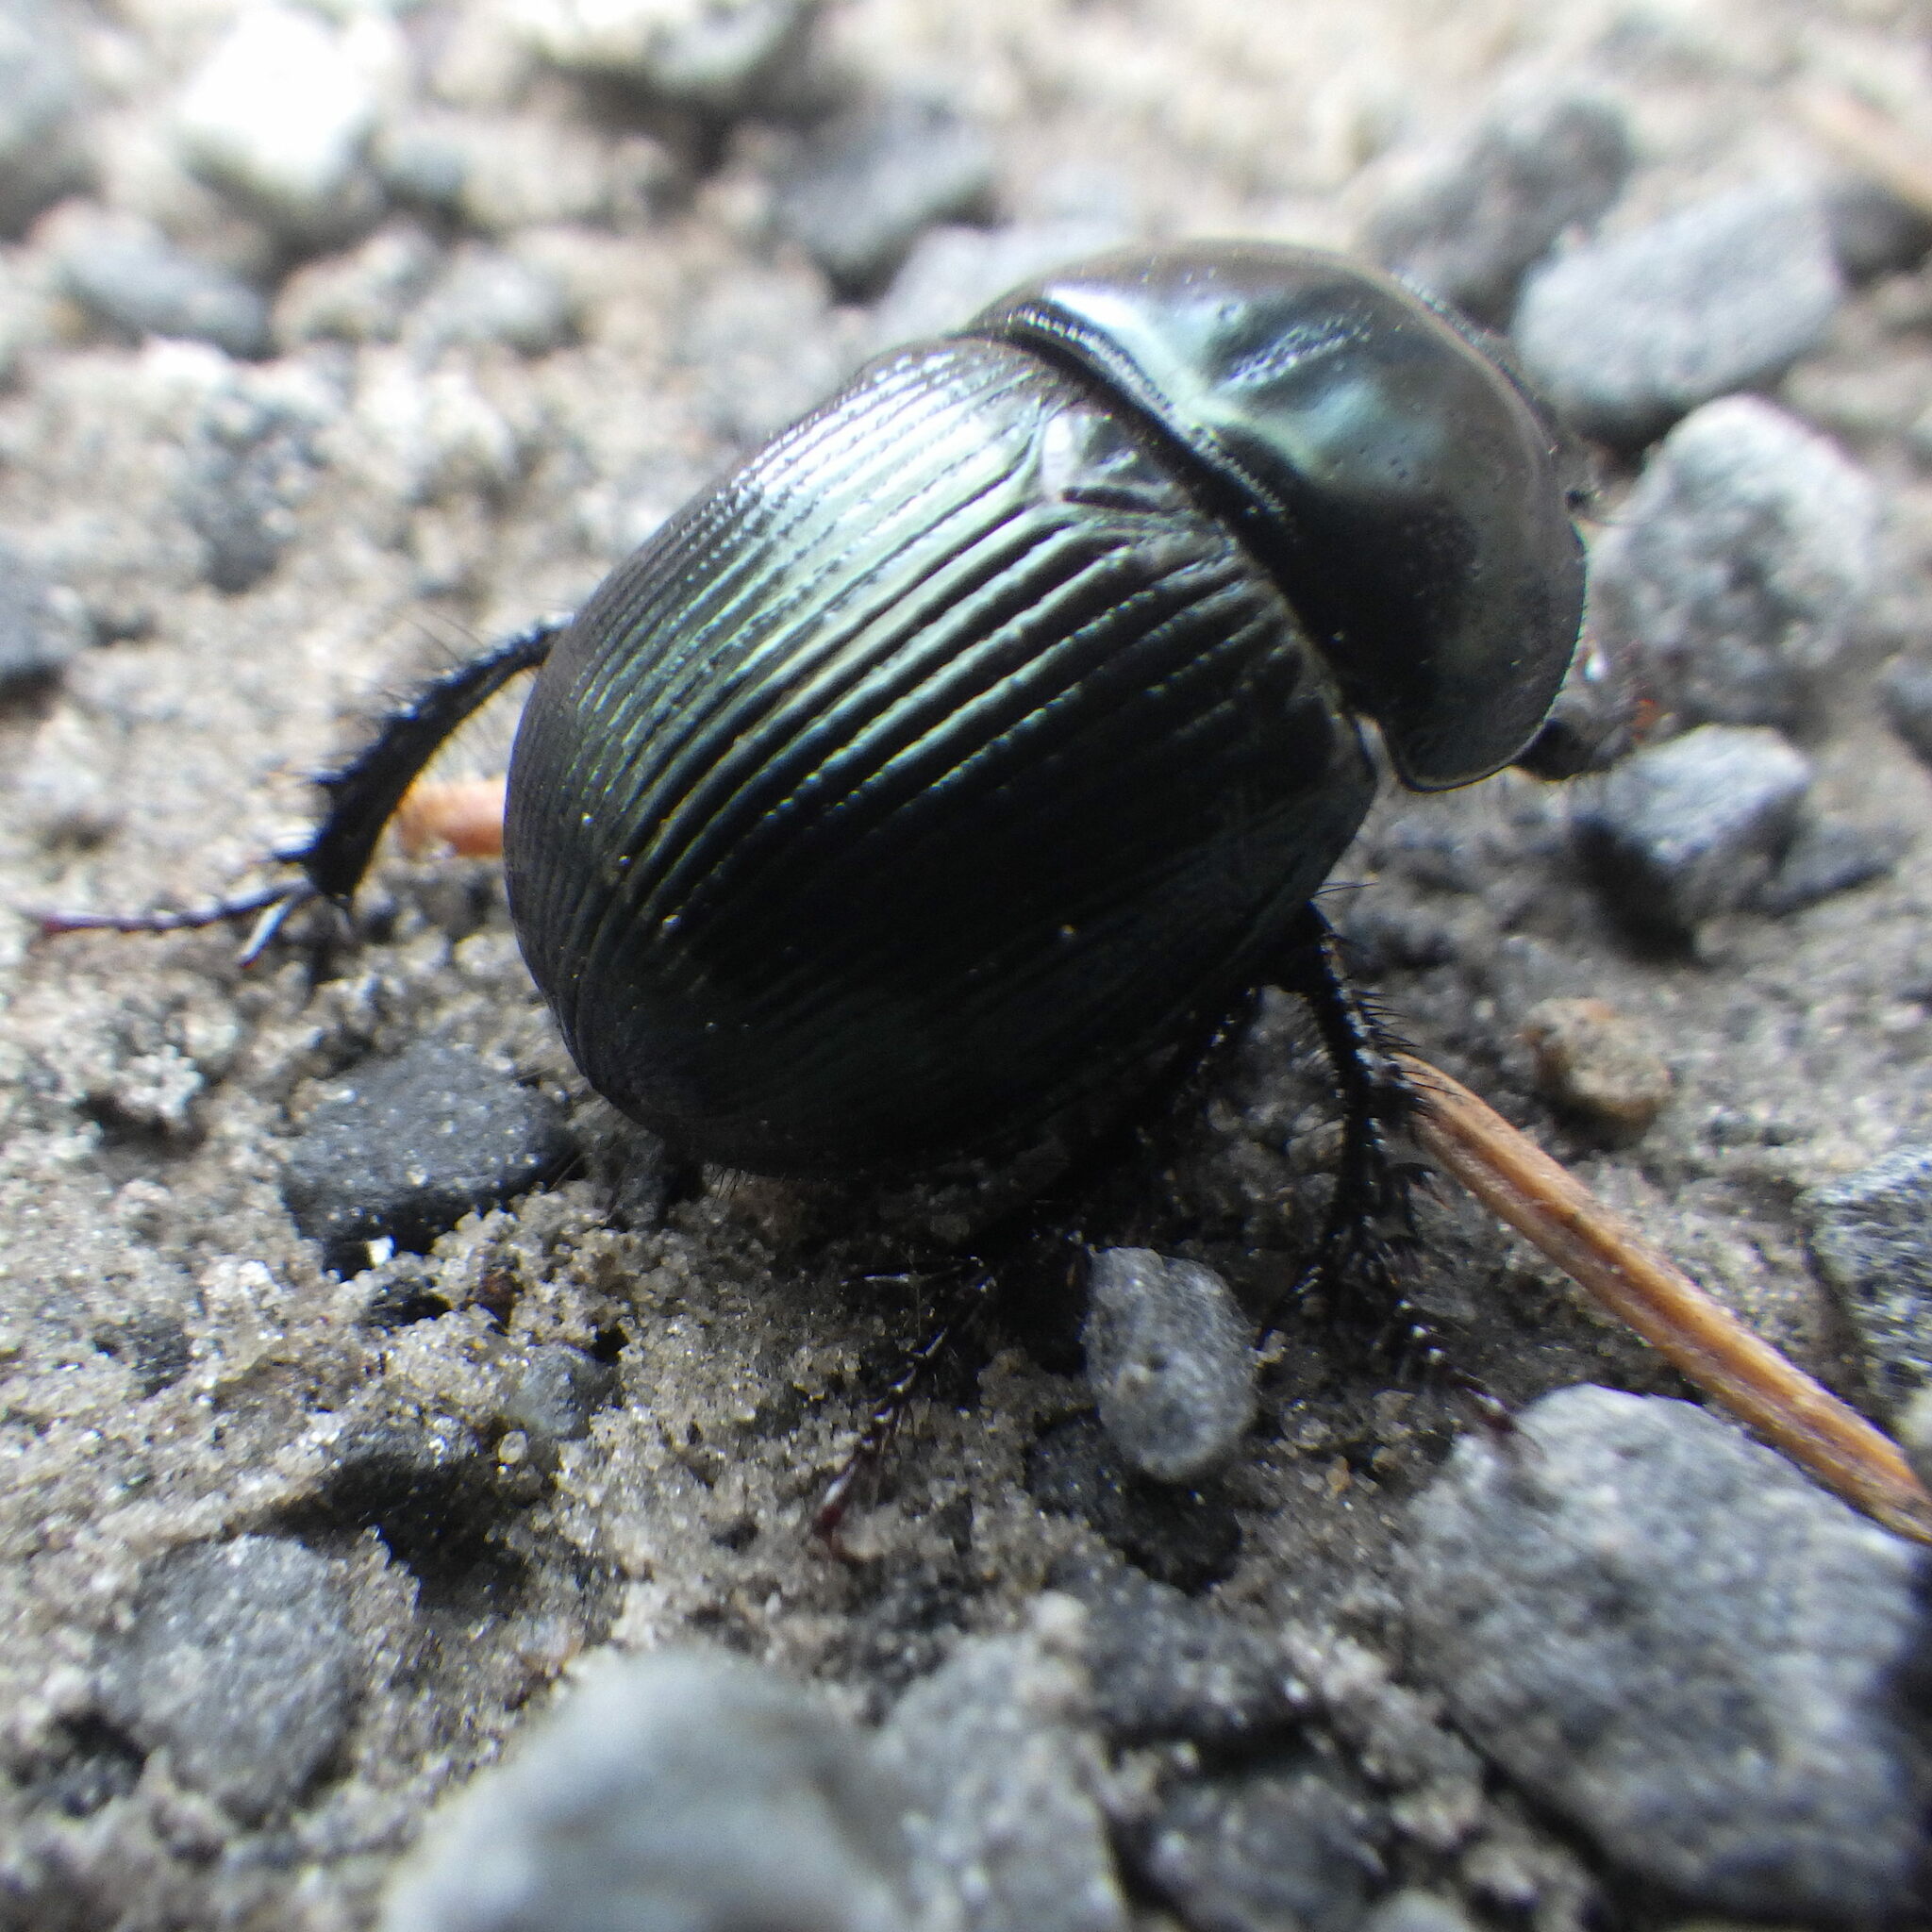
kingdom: Animalia
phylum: Arthropoda
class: Insecta
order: Coleoptera
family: Geotrupidae
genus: Anoplotrupes
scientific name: Anoplotrupes balyi
